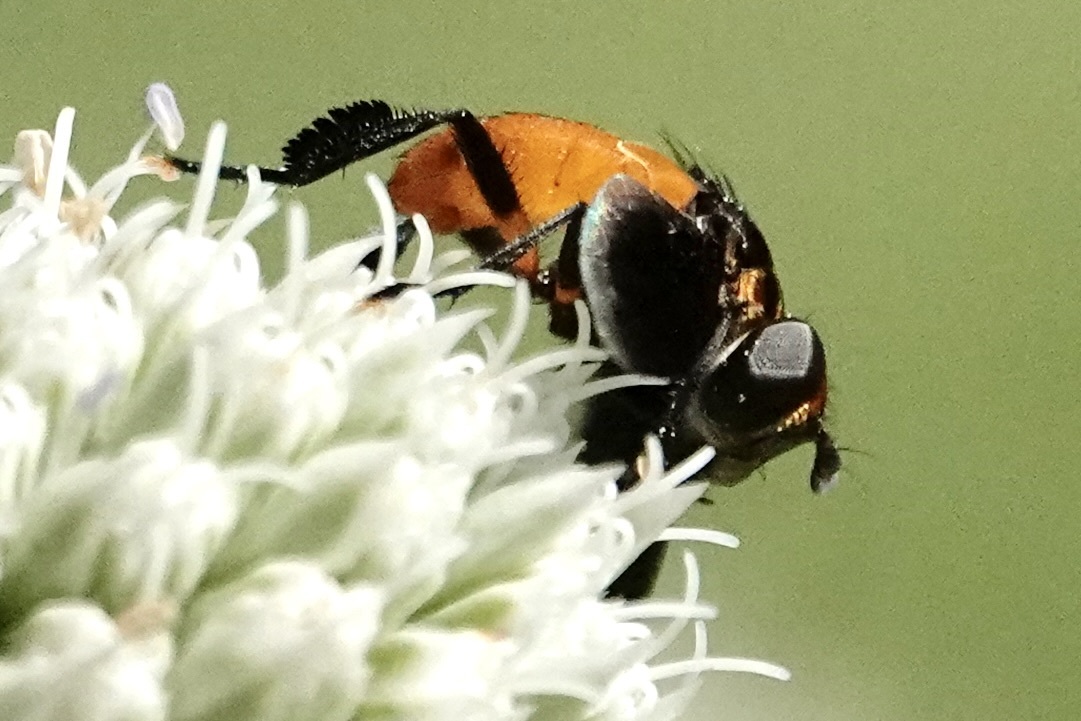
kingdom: Animalia
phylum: Arthropoda
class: Insecta
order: Diptera
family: Tachinidae
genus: Trichopoda
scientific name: Trichopoda pennipes
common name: Tachinid fly
